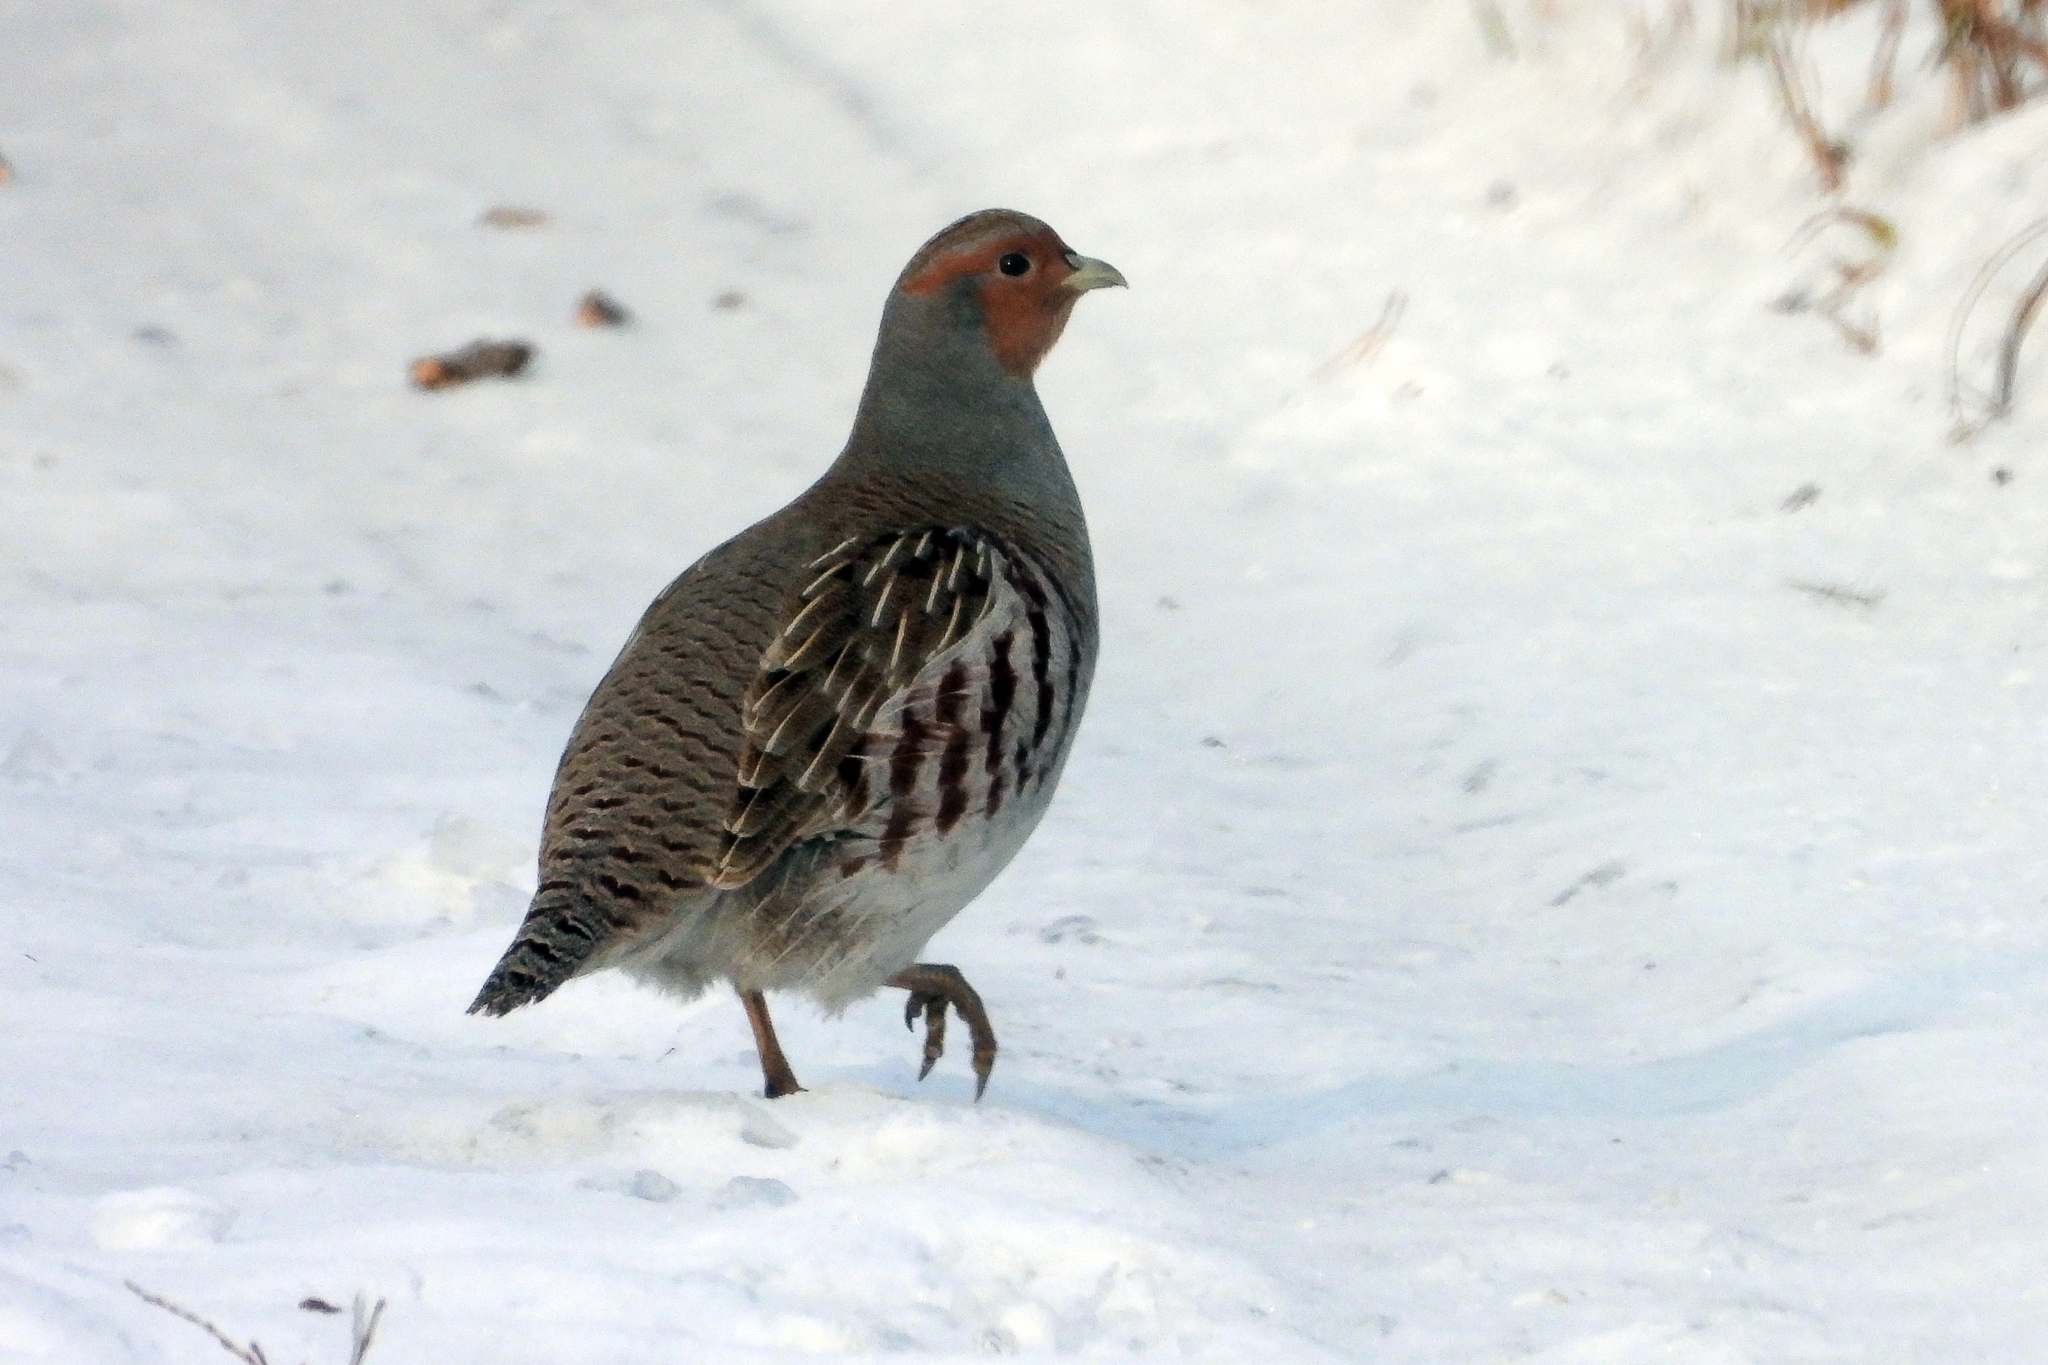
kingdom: Animalia
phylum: Chordata
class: Aves
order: Galliformes
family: Phasianidae
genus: Perdix
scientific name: Perdix perdix
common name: Grey partridge
